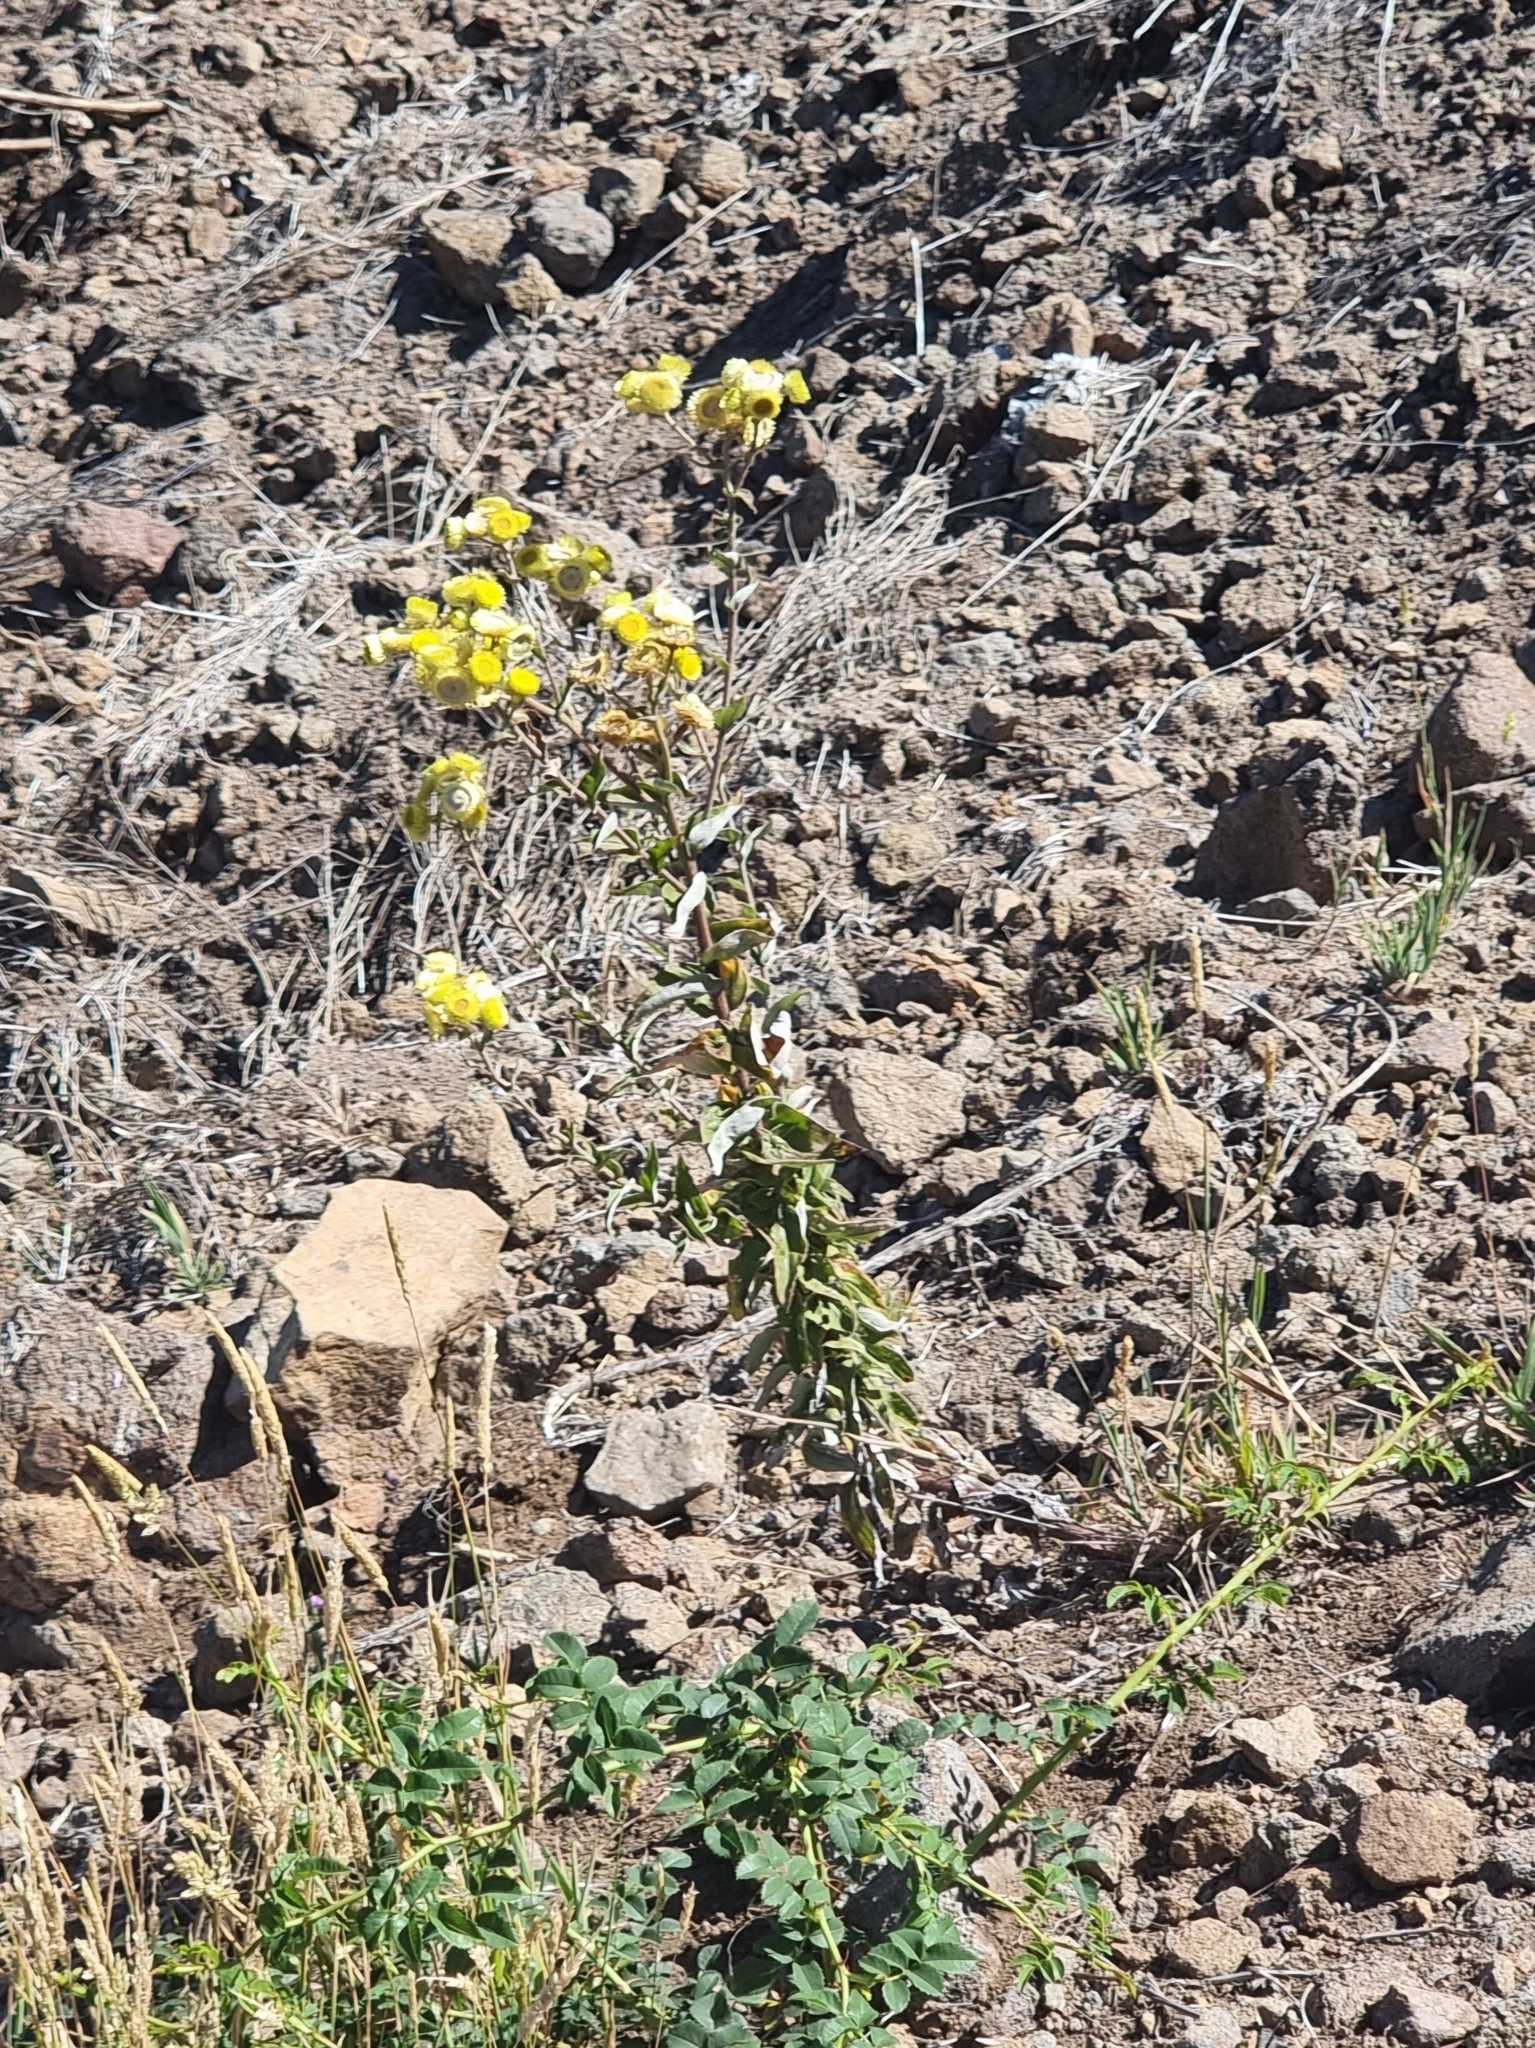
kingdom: Plantae
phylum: Tracheophyta
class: Magnoliopsida
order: Asterales
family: Asteraceae
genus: Helichrysum
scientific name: Helichrysum foetidum
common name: Stinking everlasting
